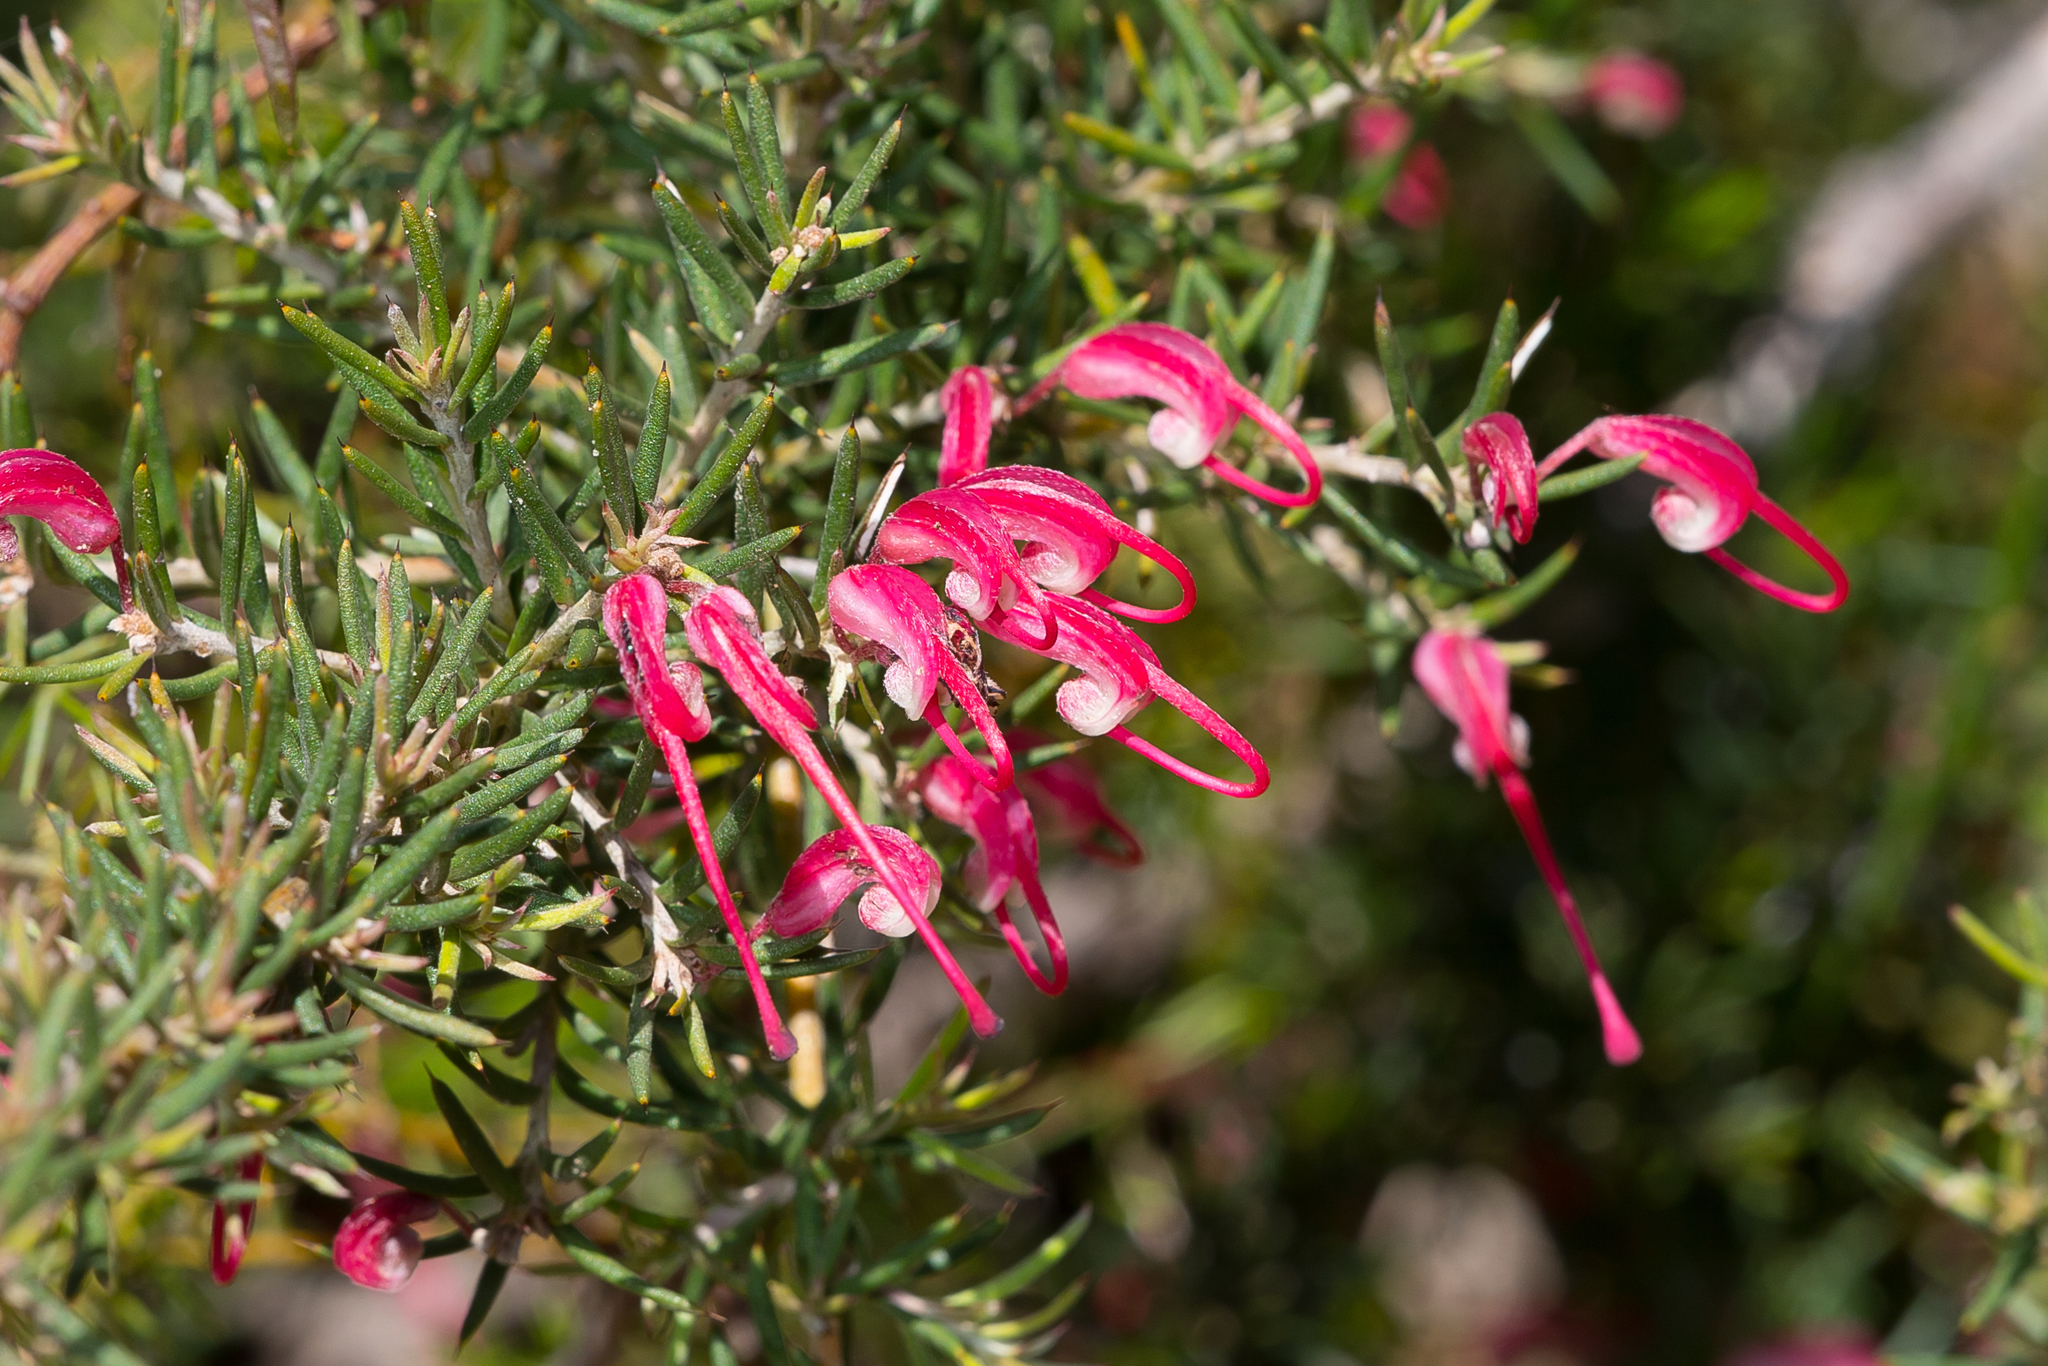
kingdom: Plantae
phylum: Tracheophyta
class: Magnoliopsida
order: Proteales
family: Proteaceae
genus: Grevillea
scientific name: Grevillea lavandulacea
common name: Lavender grevillea
